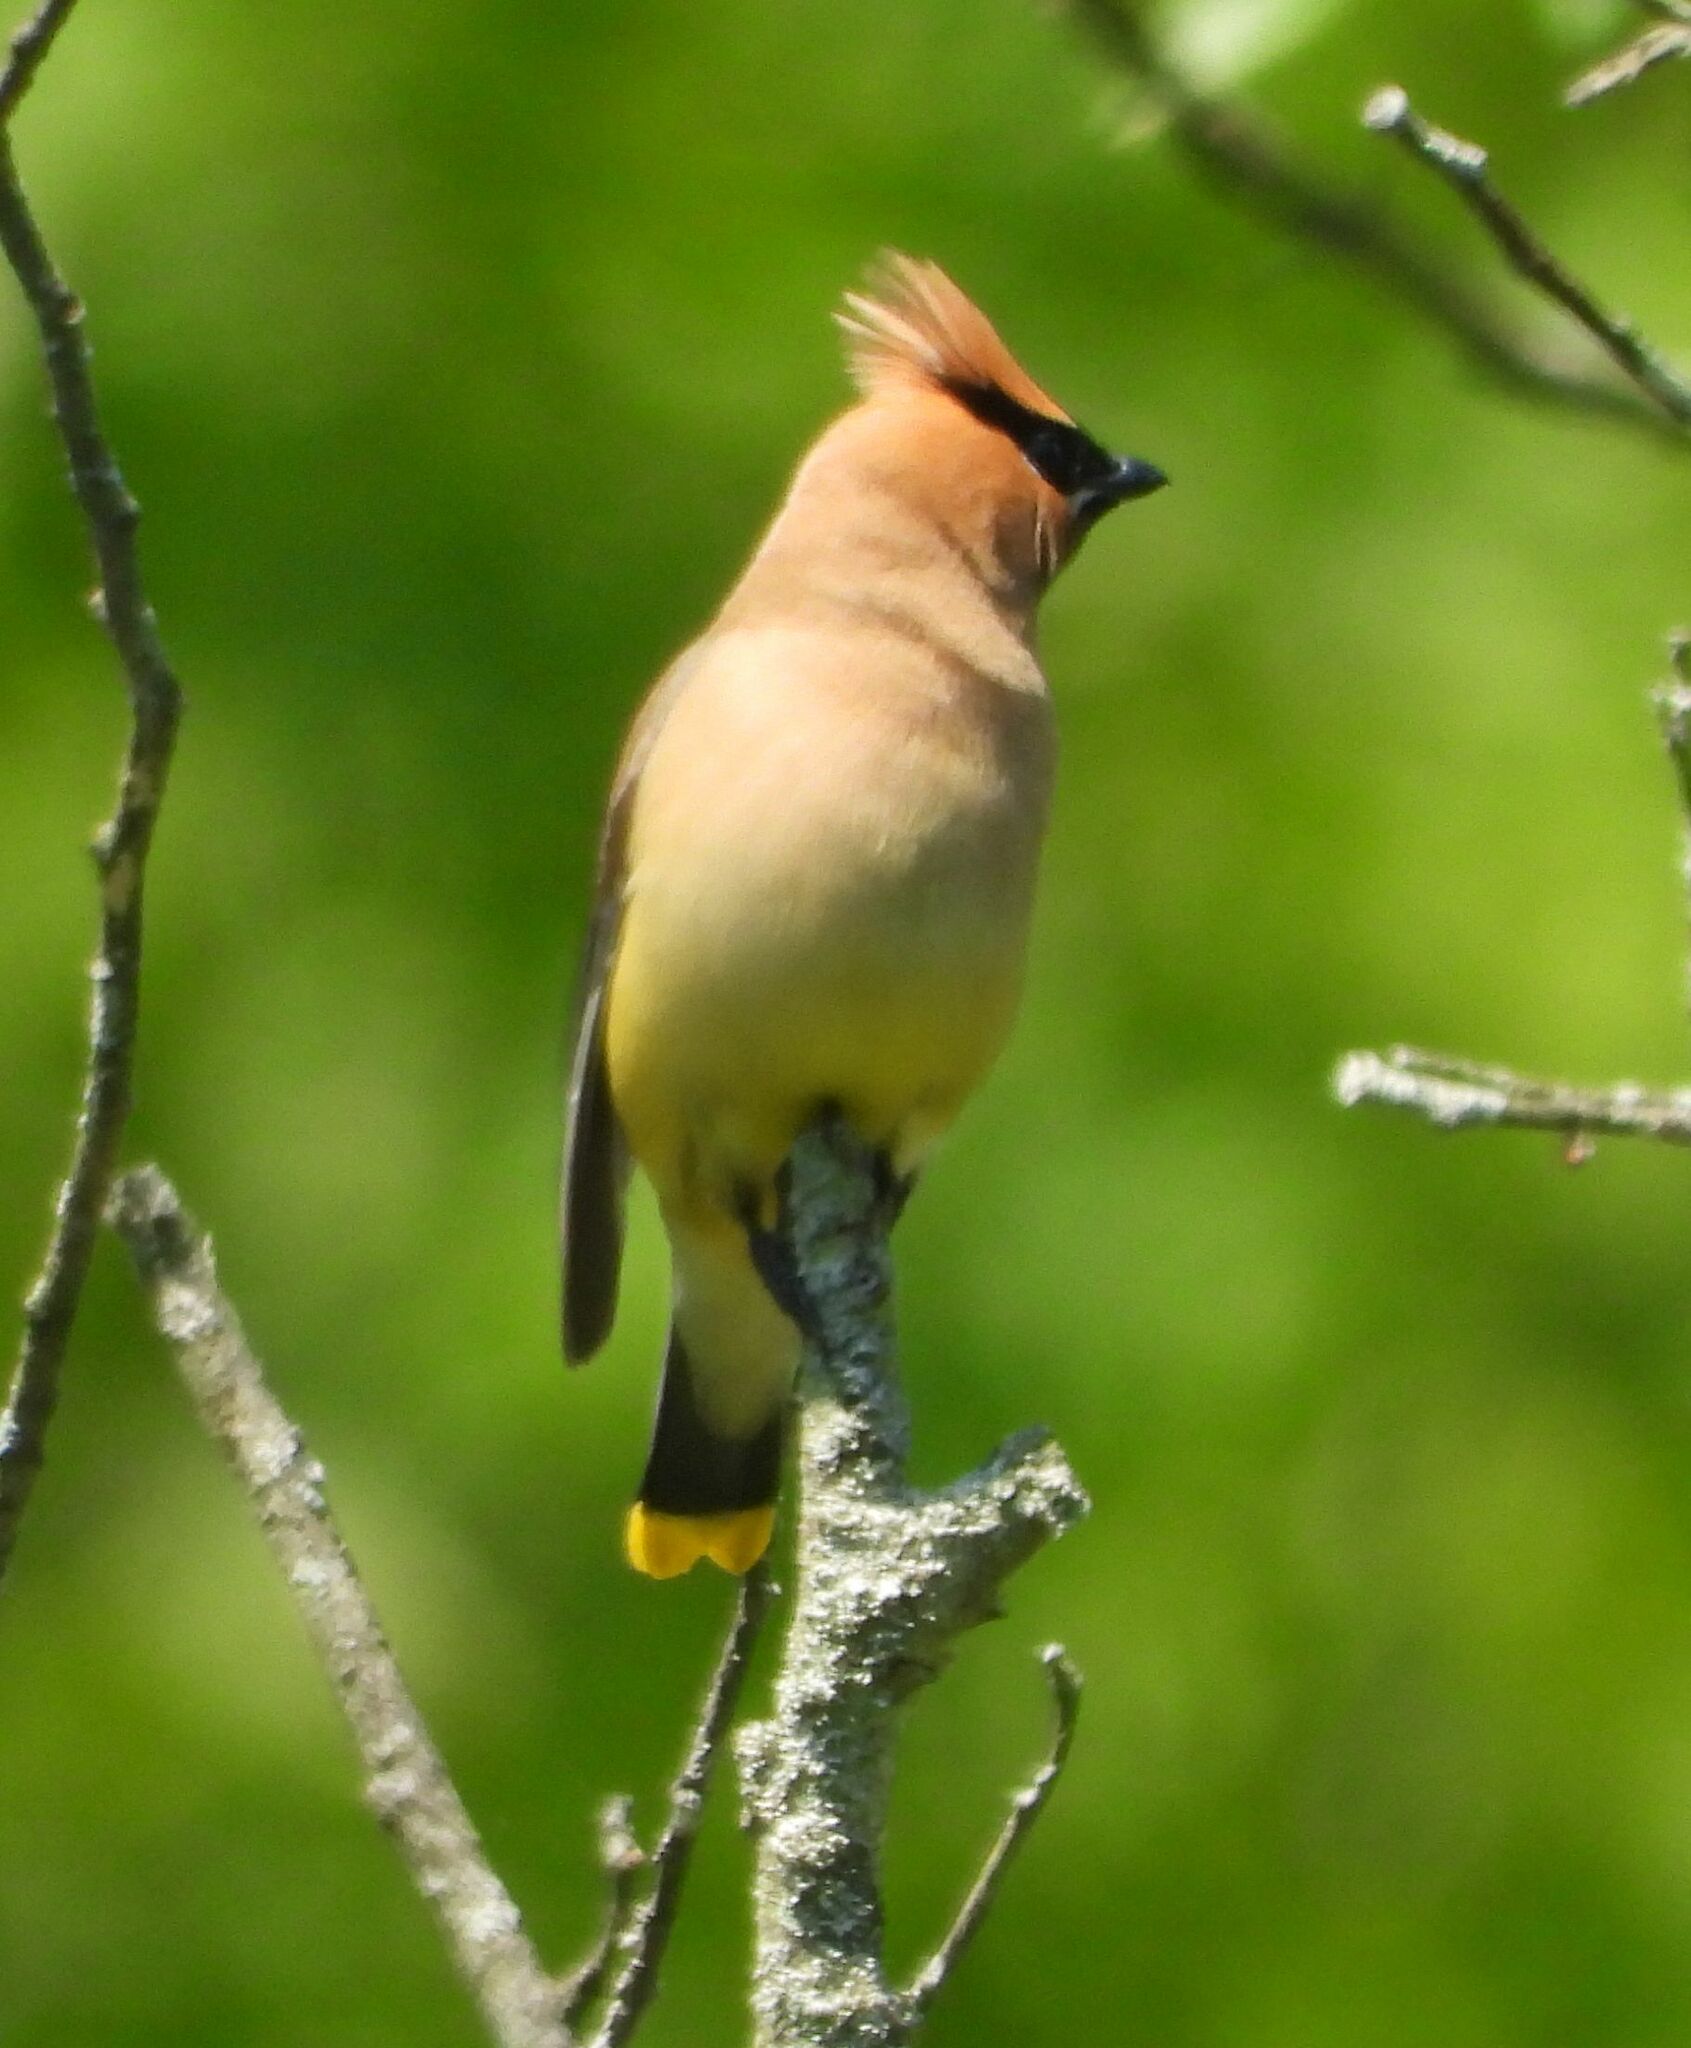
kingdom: Animalia
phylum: Chordata
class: Aves
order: Passeriformes
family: Bombycillidae
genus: Bombycilla
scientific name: Bombycilla cedrorum
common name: Cedar waxwing
